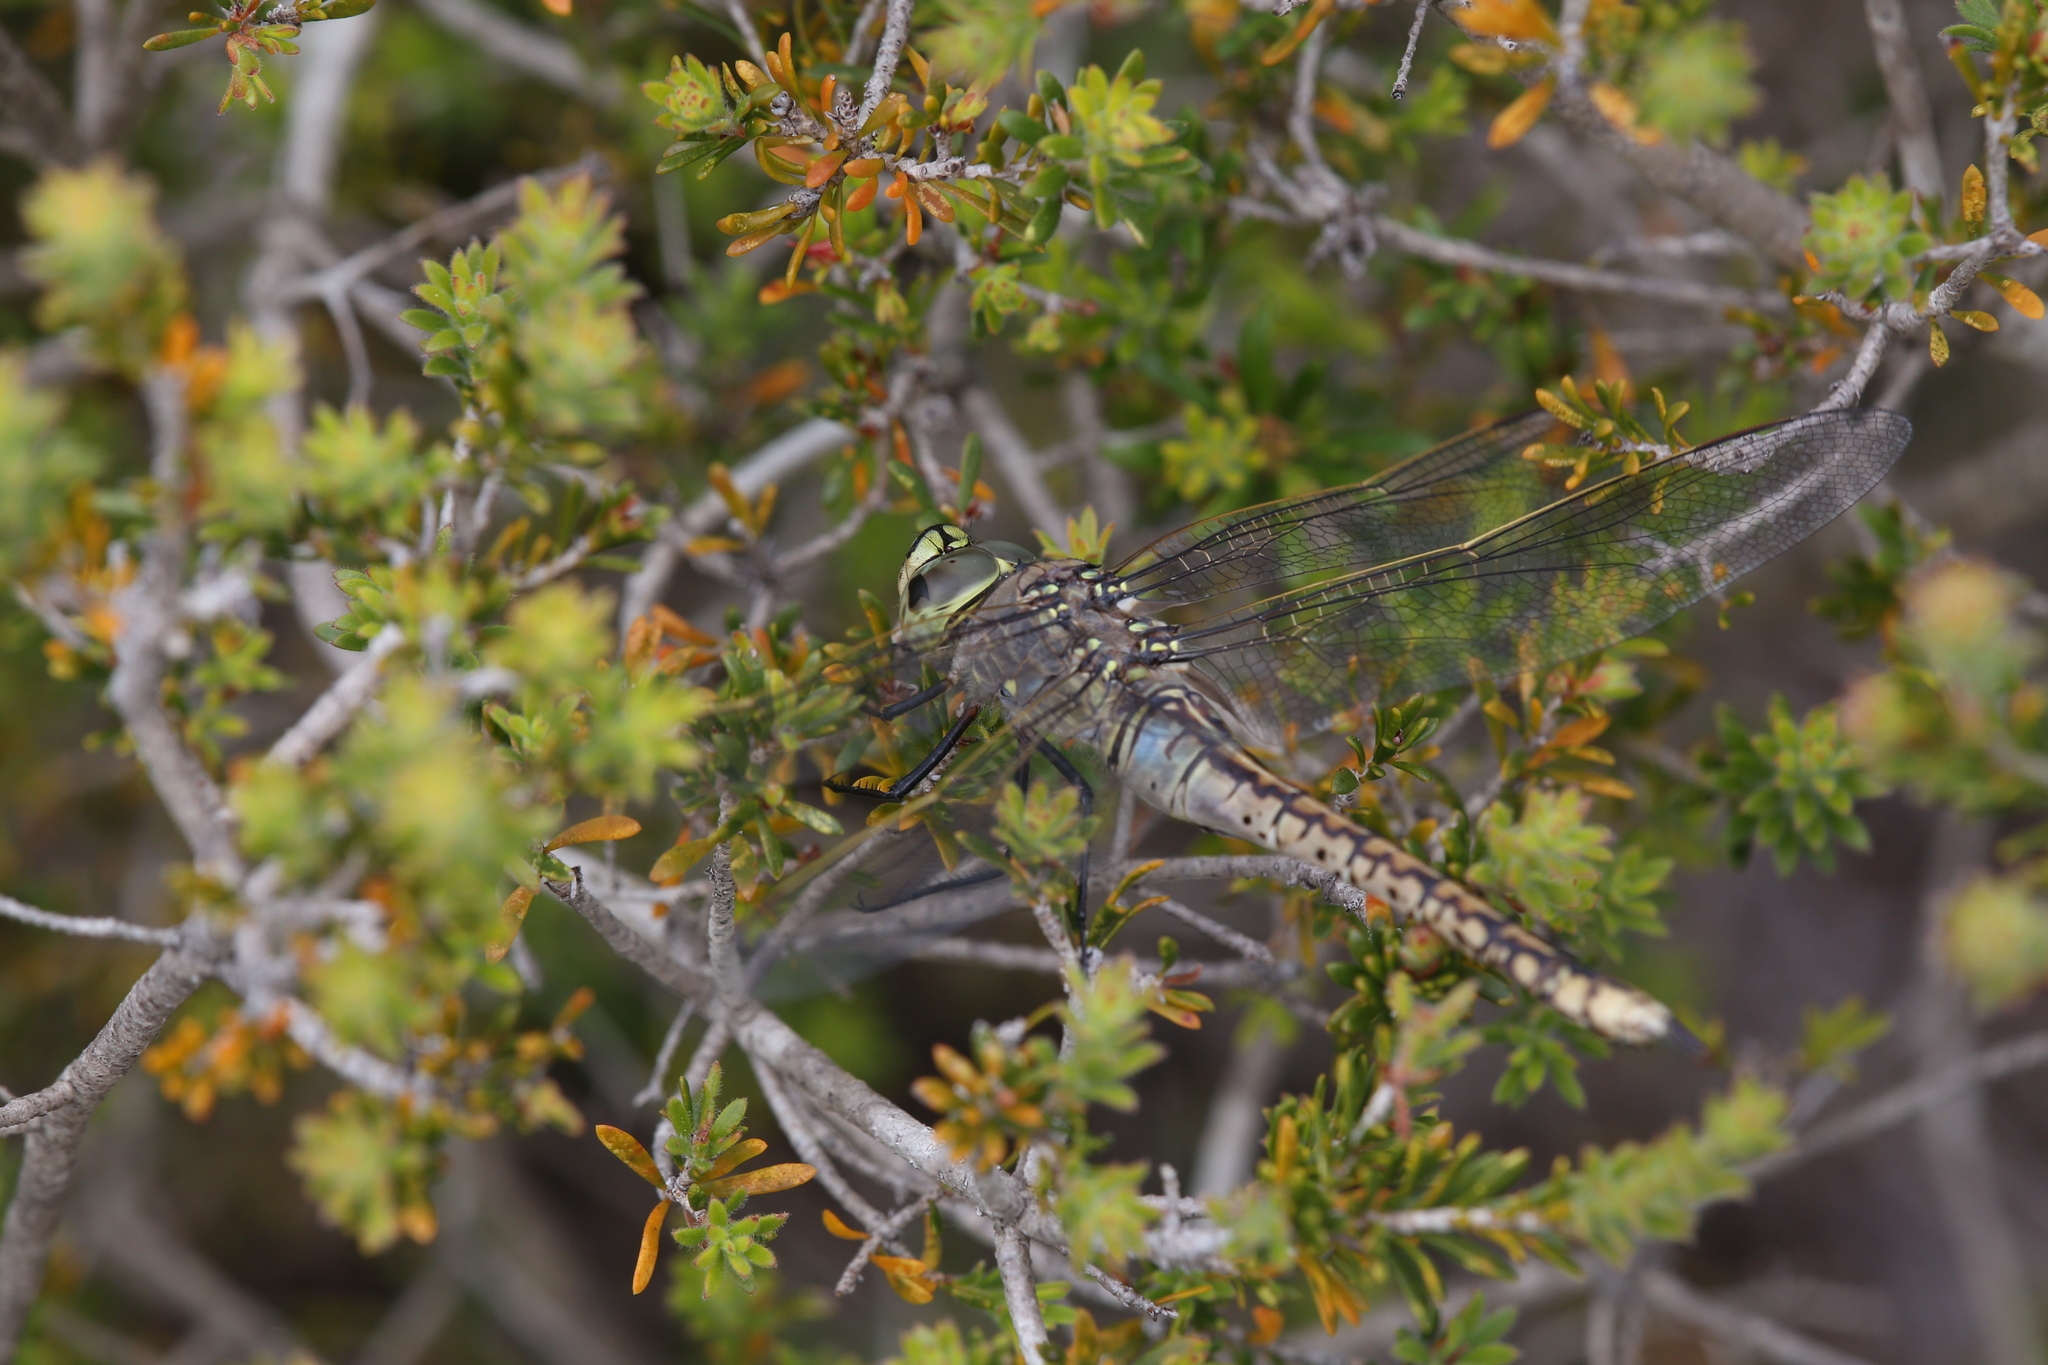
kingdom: Animalia
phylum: Arthropoda
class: Insecta
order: Odonata
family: Aeshnidae
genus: Anax
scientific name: Anax papuensis
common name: Australian emperor
